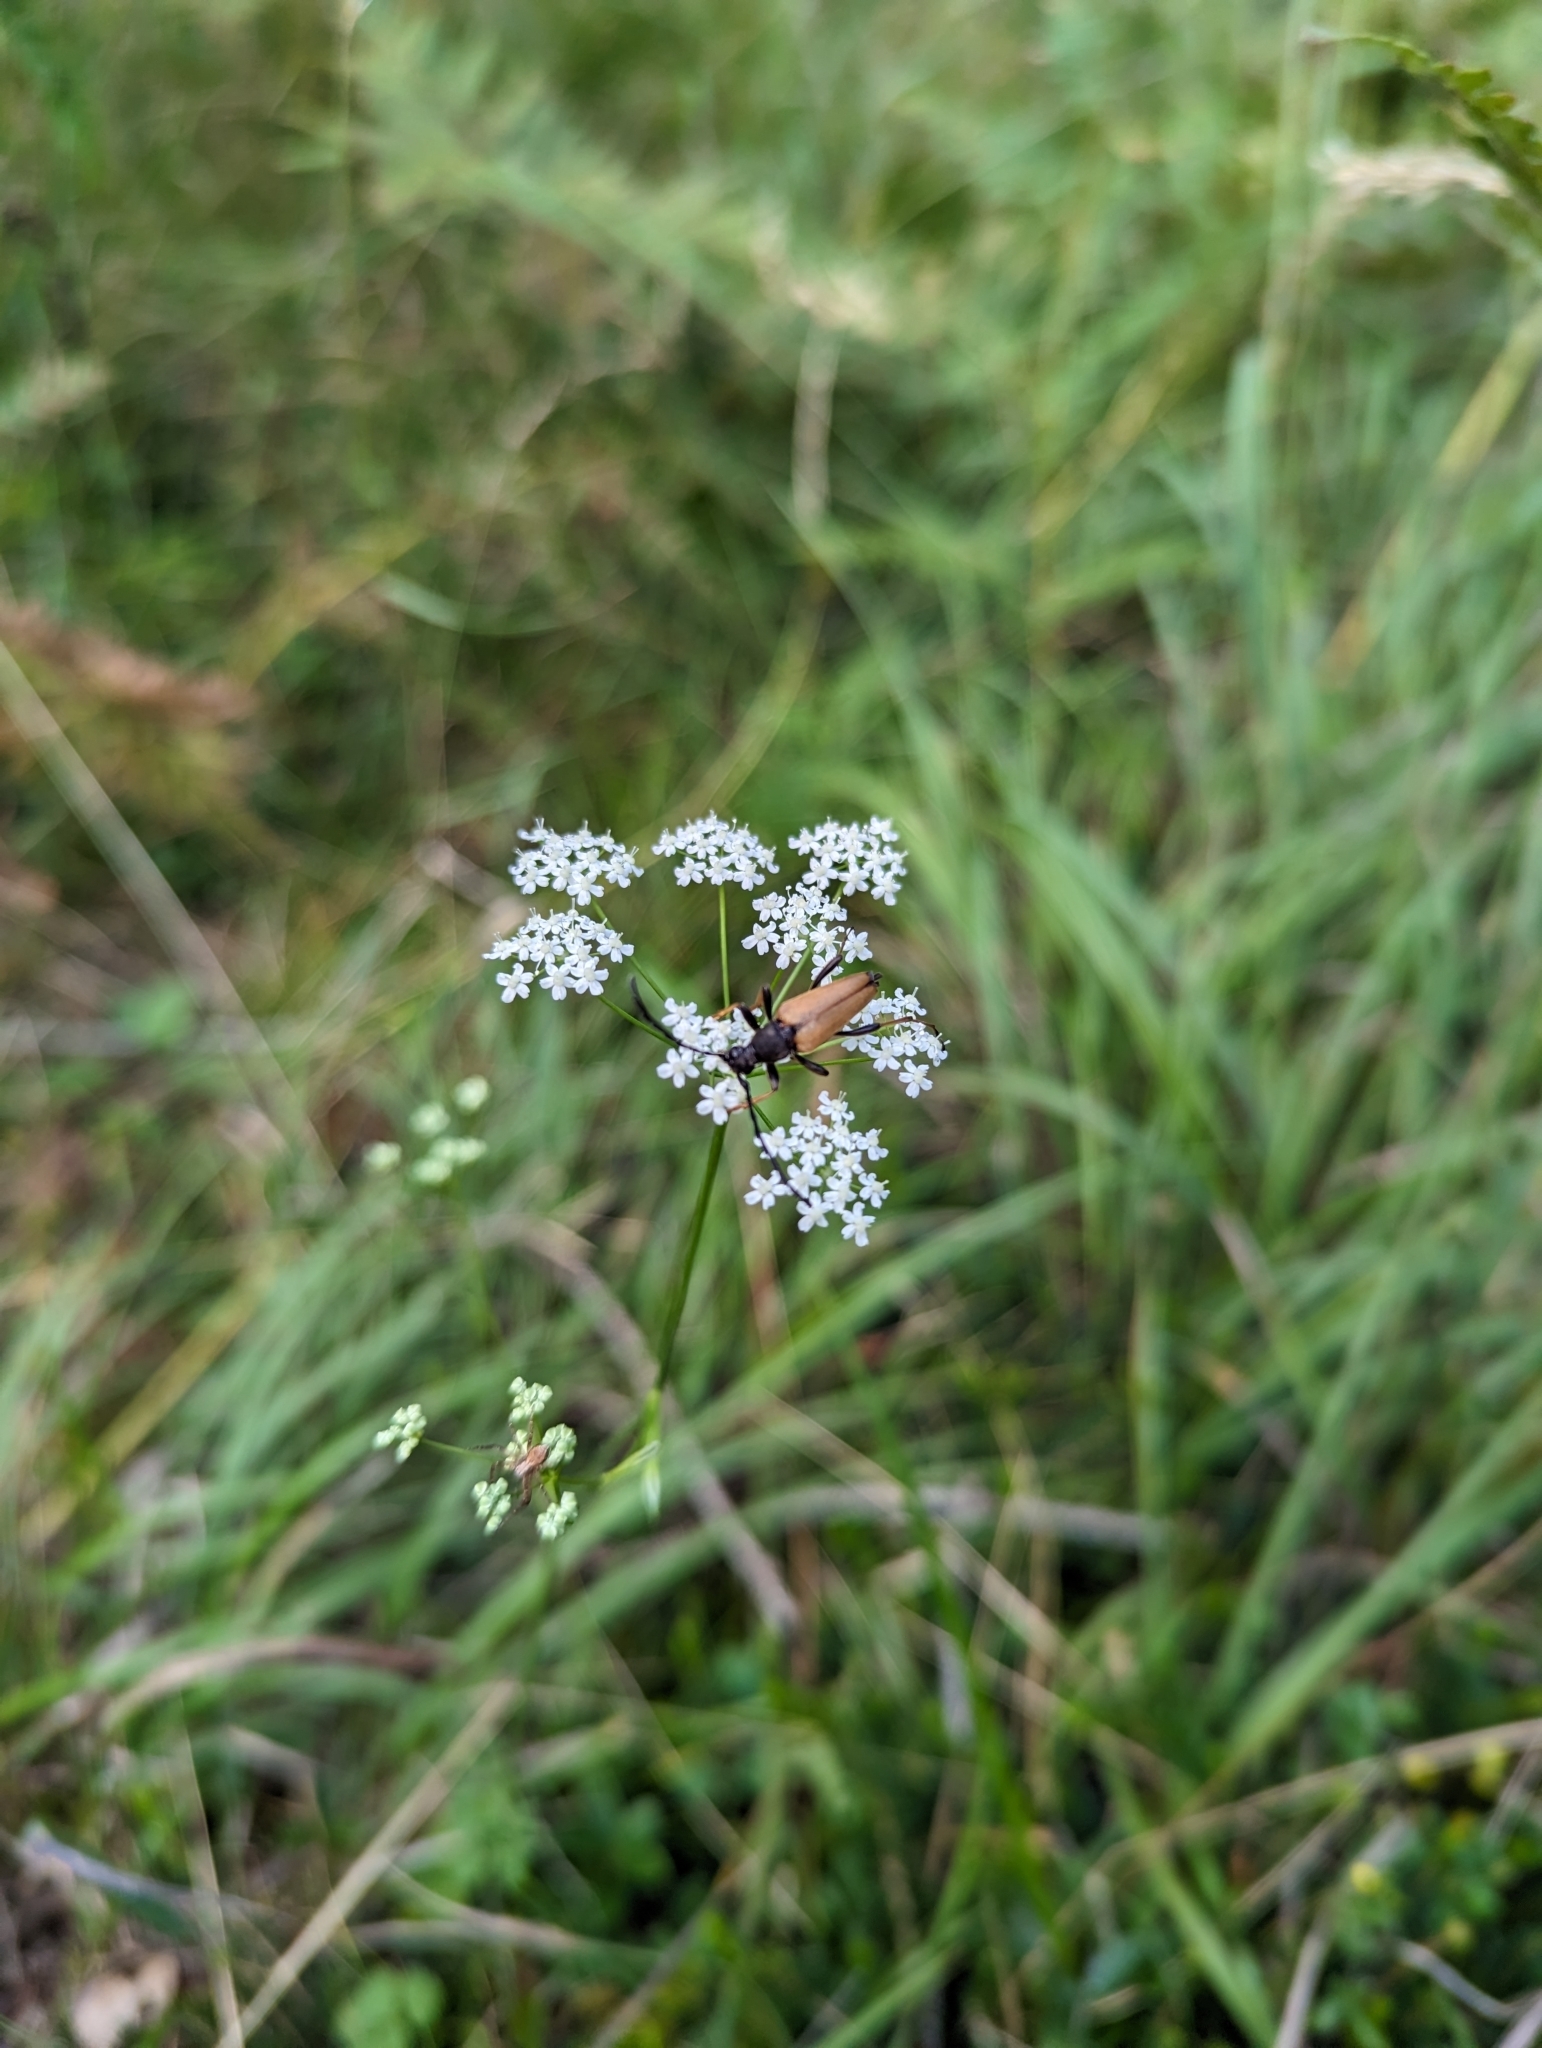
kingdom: Animalia
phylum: Arthropoda
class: Insecta
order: Coleoptera
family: Cerambycidae
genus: Stictoleptura
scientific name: Stictoleptura rubra
